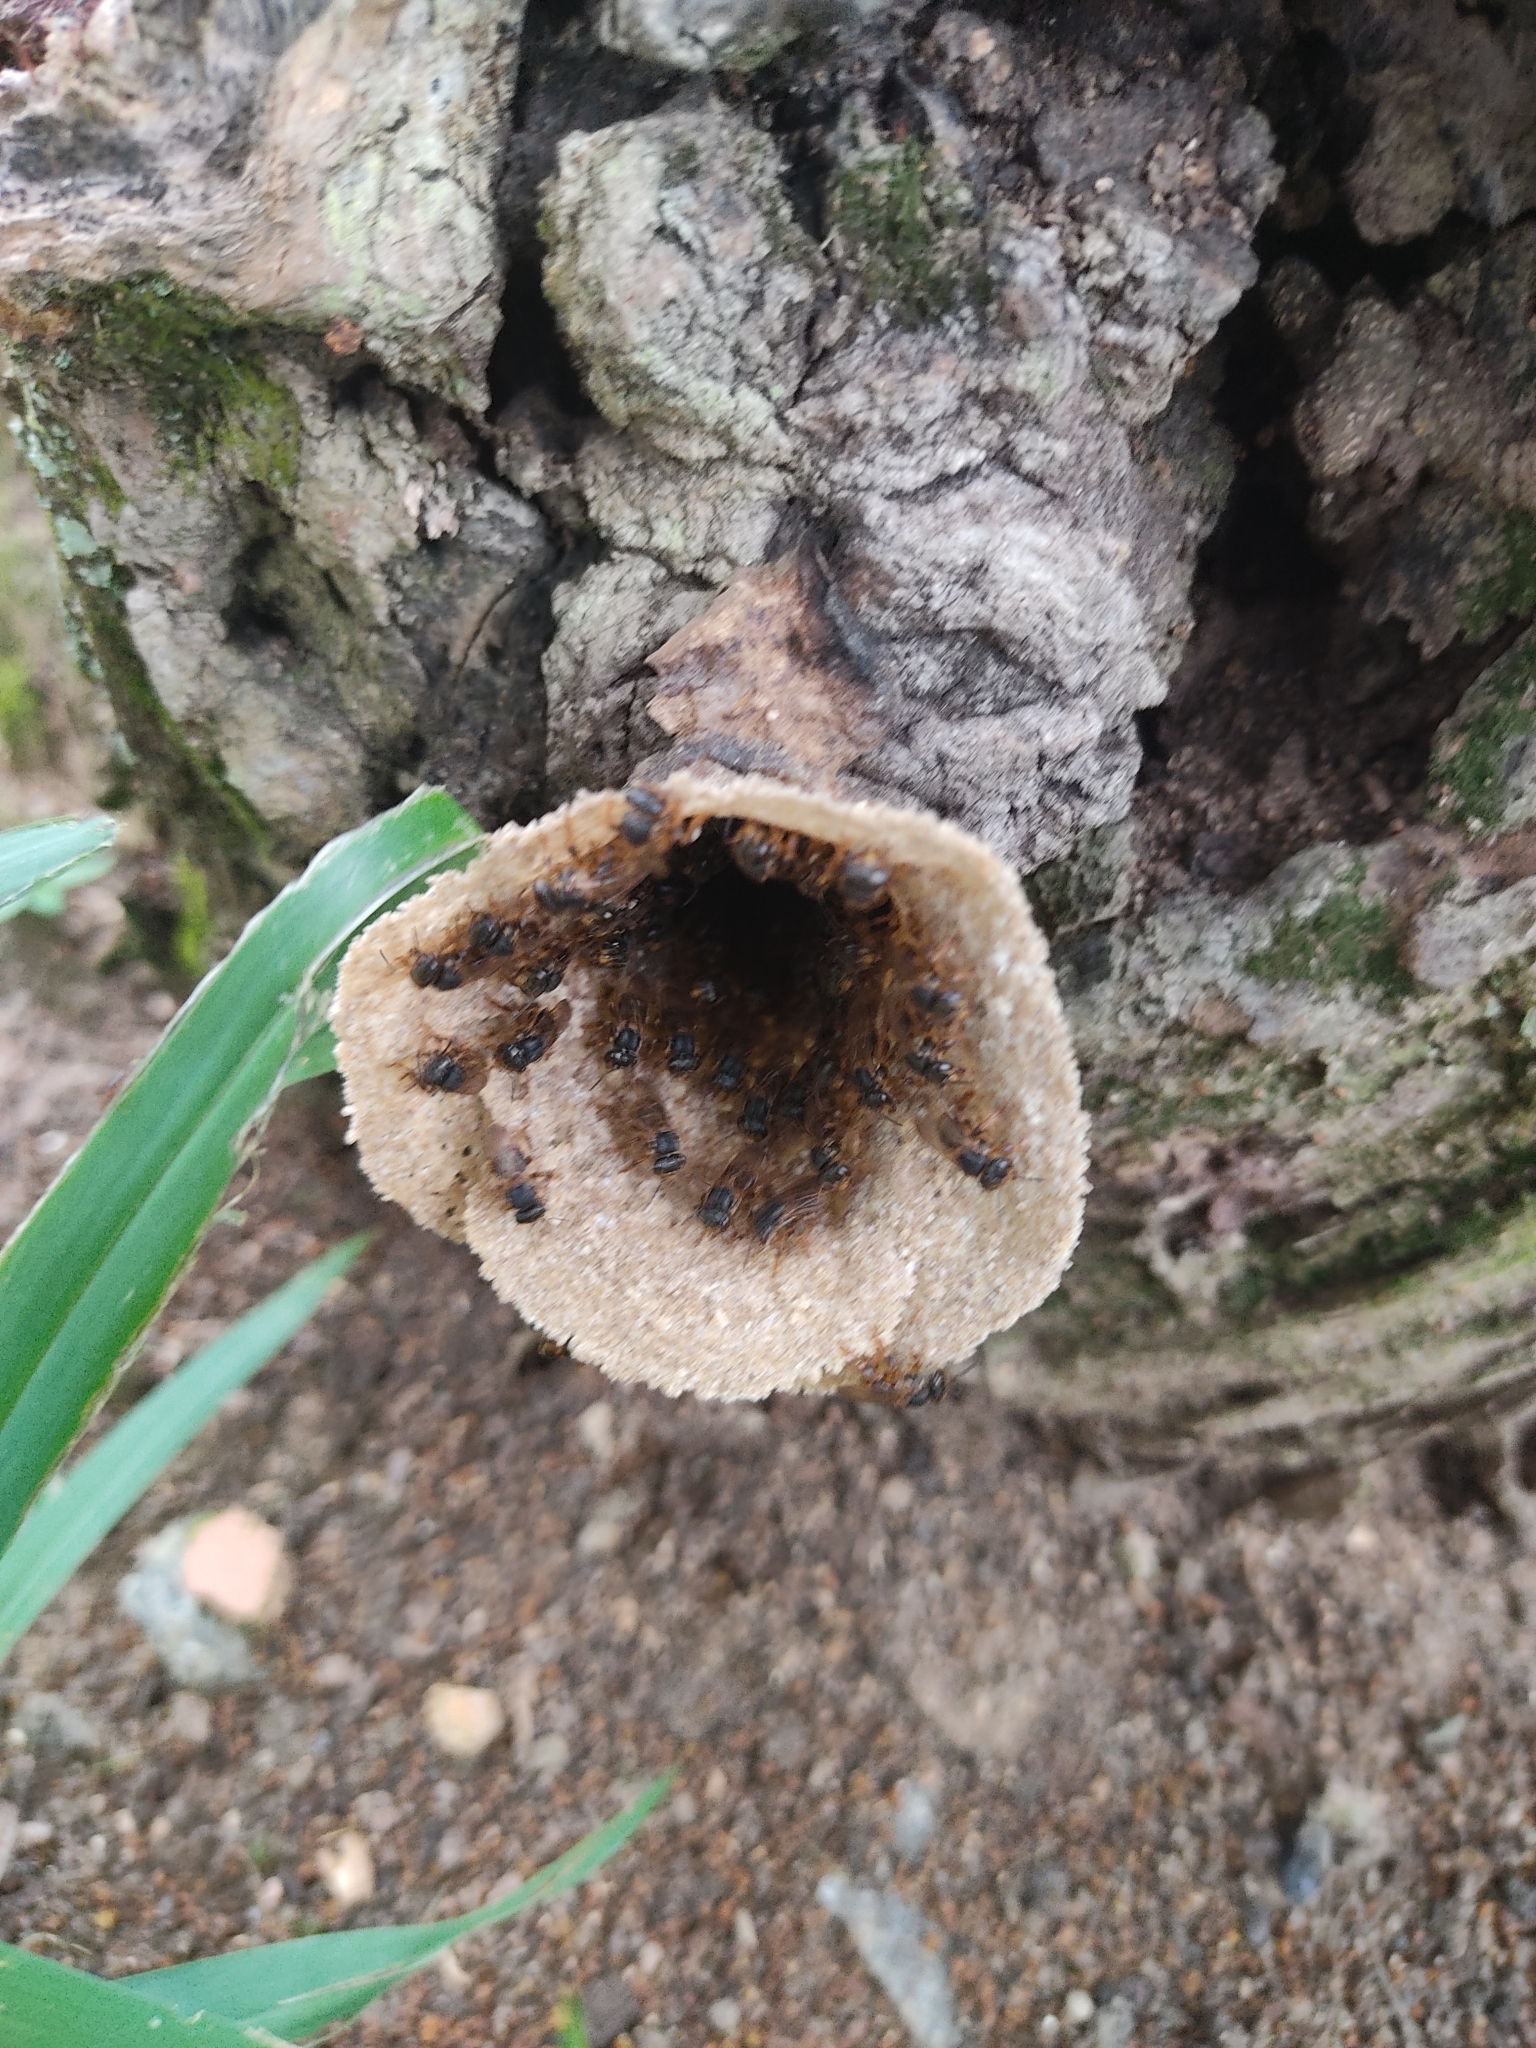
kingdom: Animalia
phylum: Arthropoda
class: Insecta
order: Hymenoptera
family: Apidae
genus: Scaptotrigona
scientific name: Scaptotrigona xanthotricha
